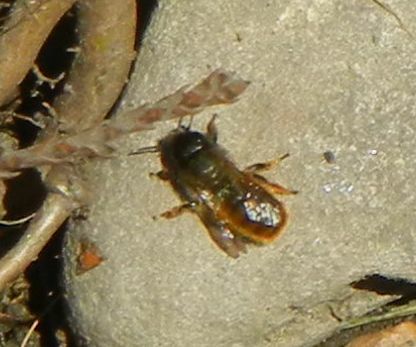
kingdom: Animalia
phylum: Arthropoda
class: Insecta
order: Hymenoptera
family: Megachilidae
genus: Osmia
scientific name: Osmia bicornis
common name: Red mason bee
